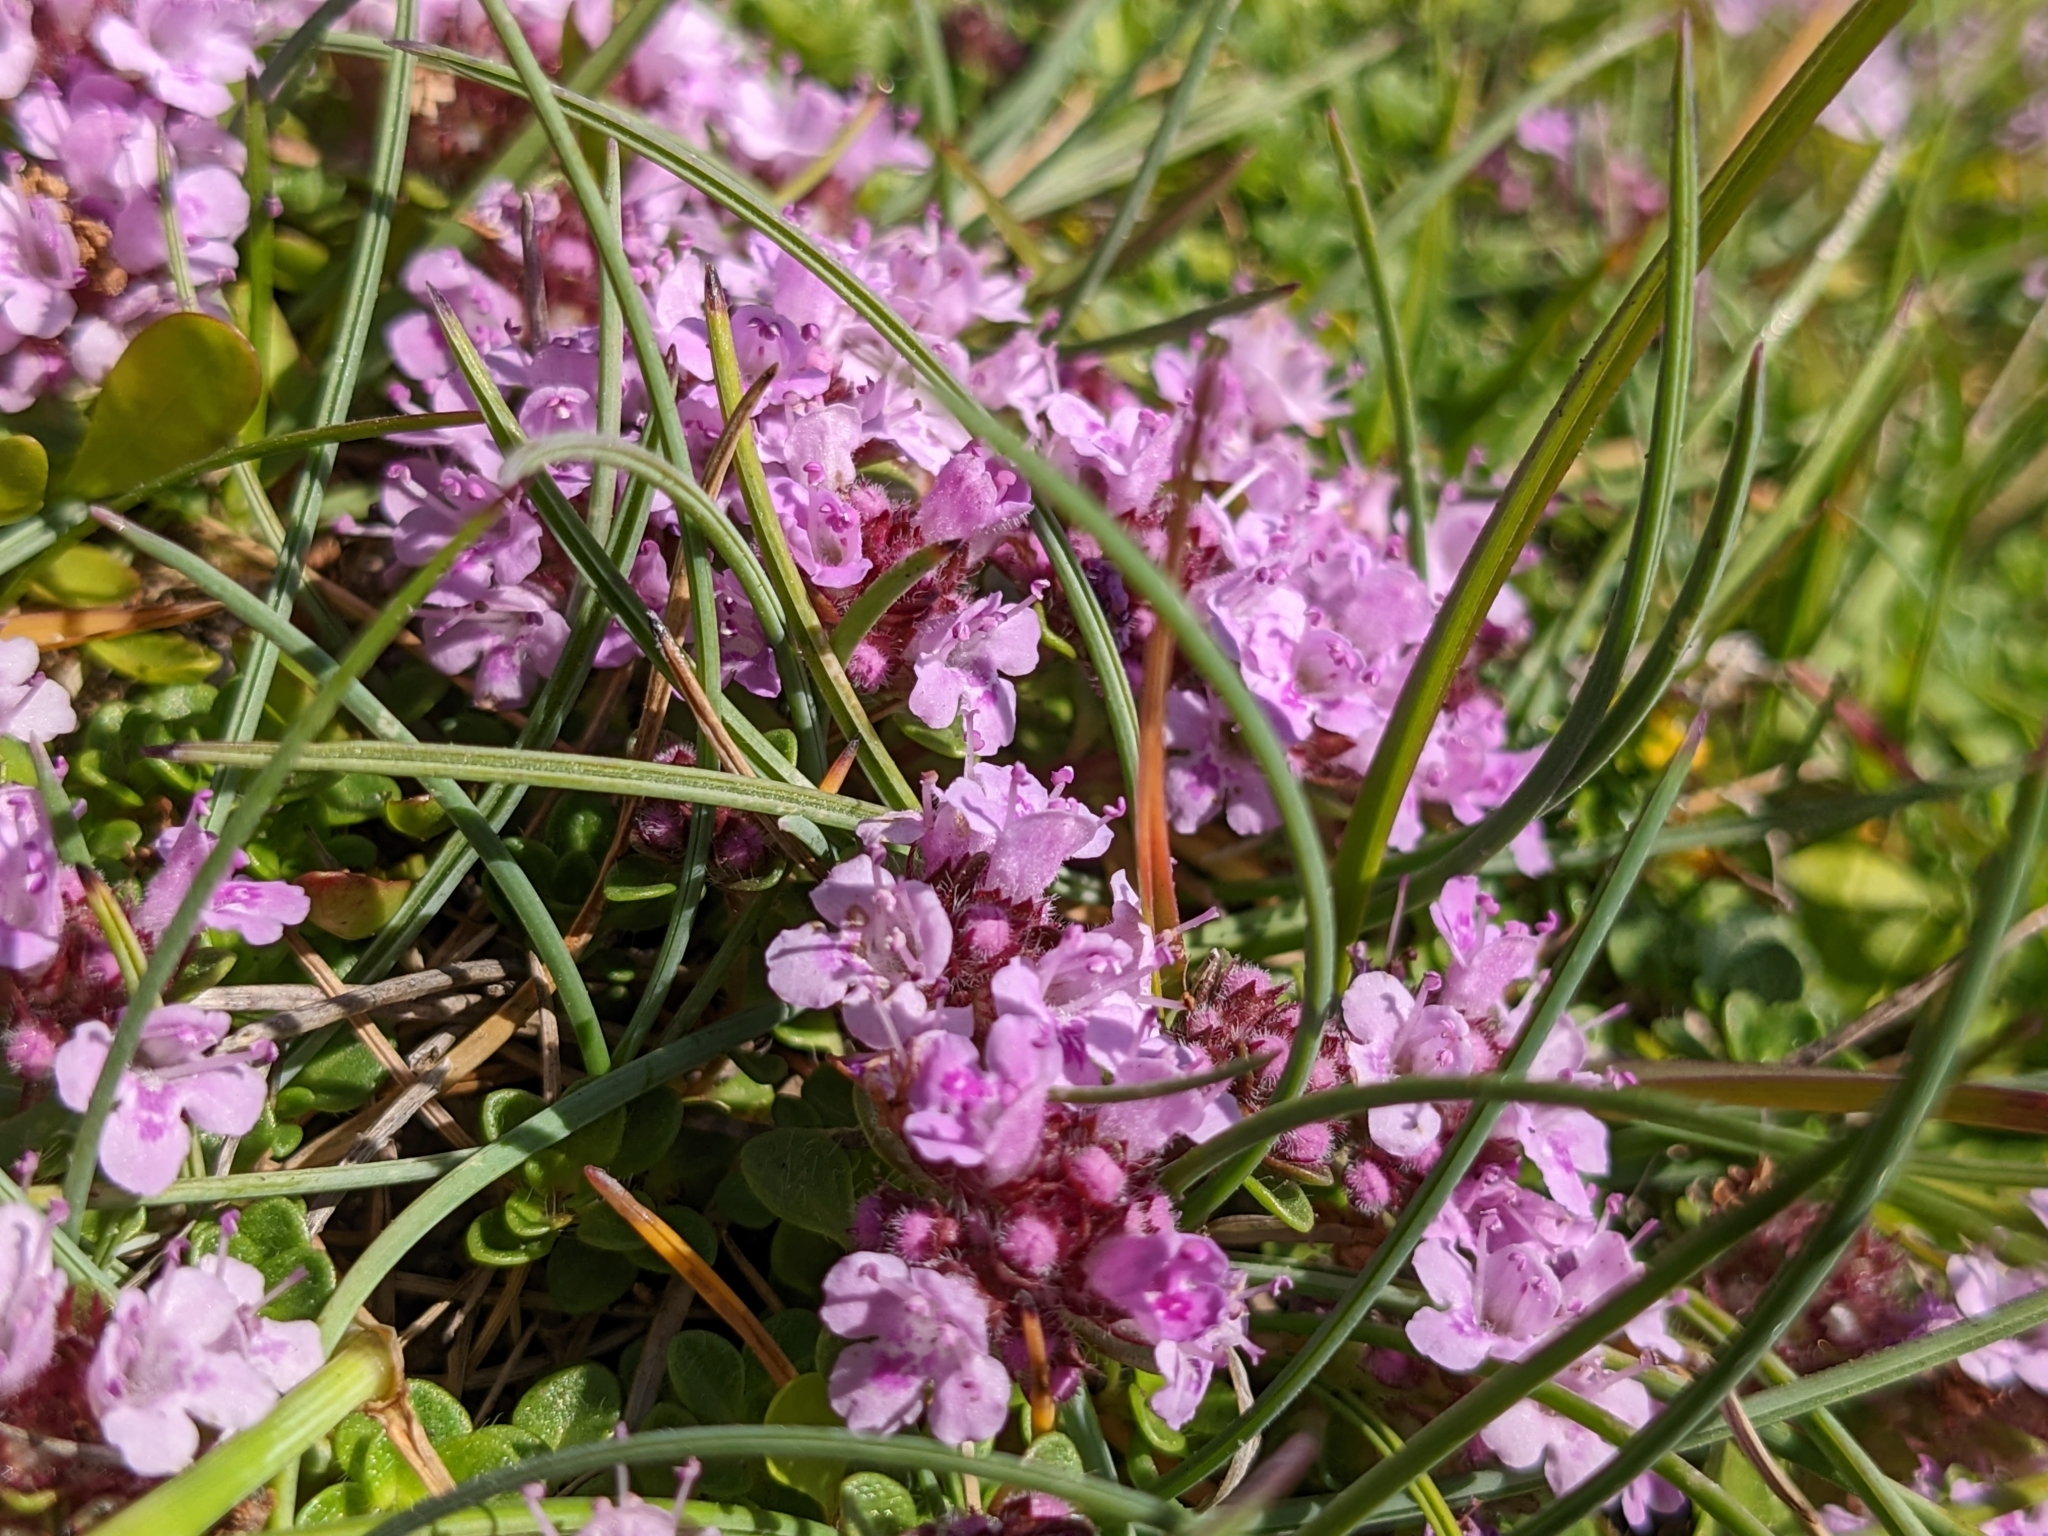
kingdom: Plantae
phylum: Tracheophyta
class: Magnoliopsida
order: Lamiales
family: Lamiaceae
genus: Thymus
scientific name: Thymus praecox
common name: Wild thyme
